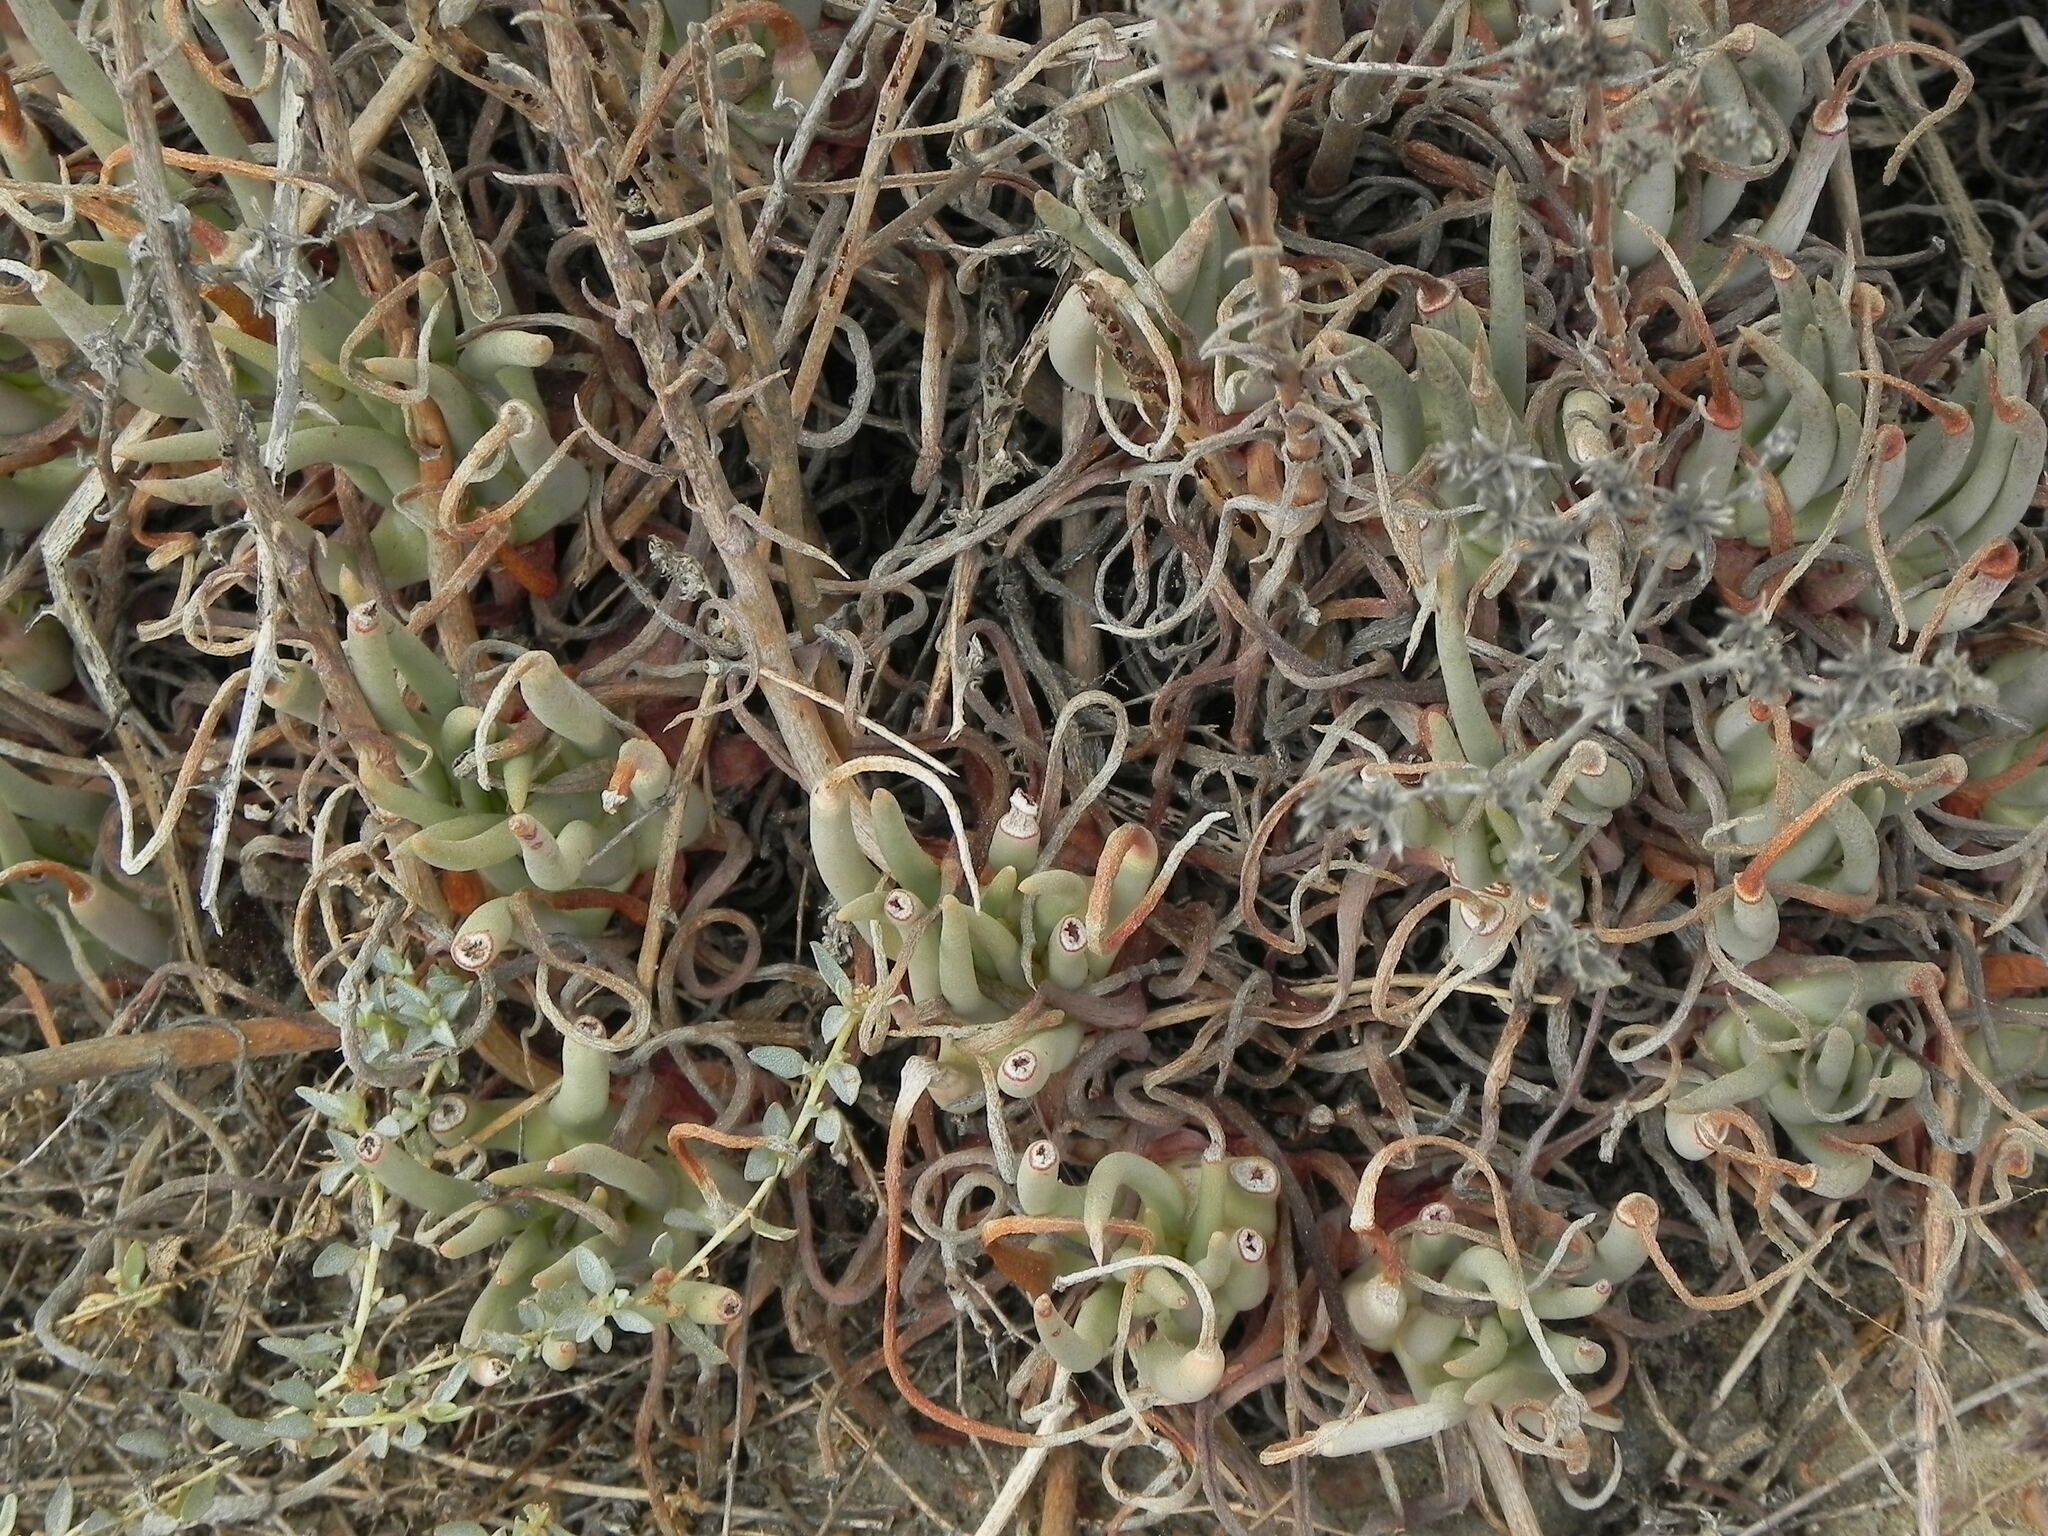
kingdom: Plantae
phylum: Tracheophyta
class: Magnoliopsida
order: Saxifragales
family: Crassulaceae
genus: Dudleya
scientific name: Dudleya edulis
